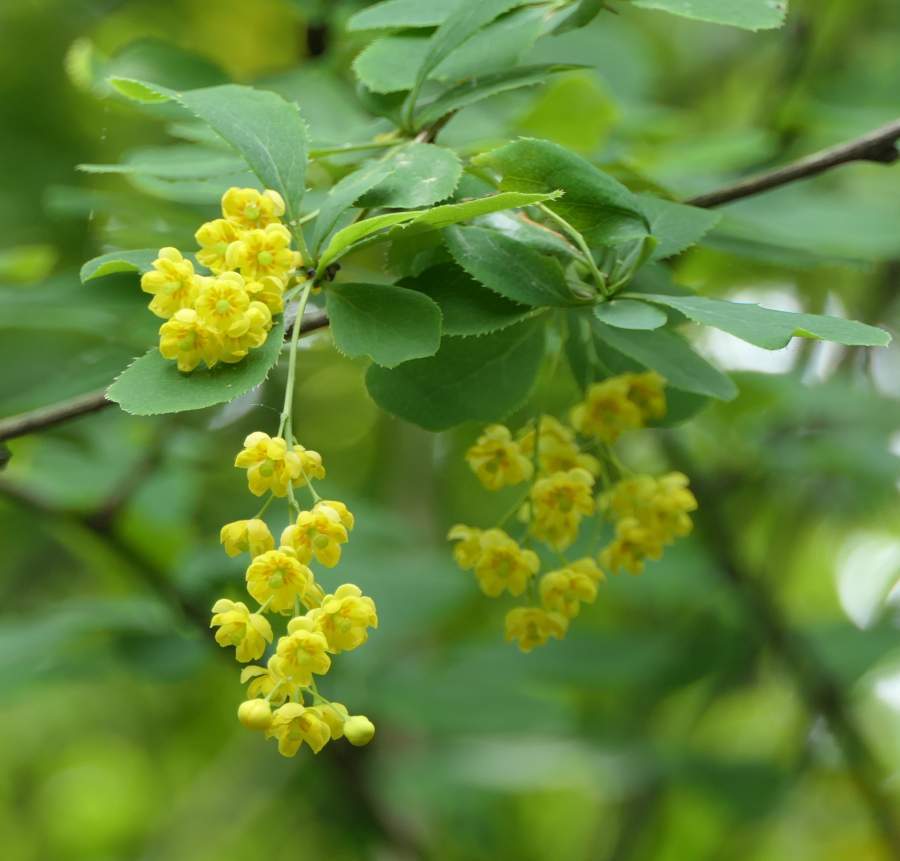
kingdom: Plantae
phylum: Tracheophyta
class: Magnoliopsida
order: Ranunculales
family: Berberidaceae
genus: Berberis
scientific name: Berberis vulgaris
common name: Barberry
